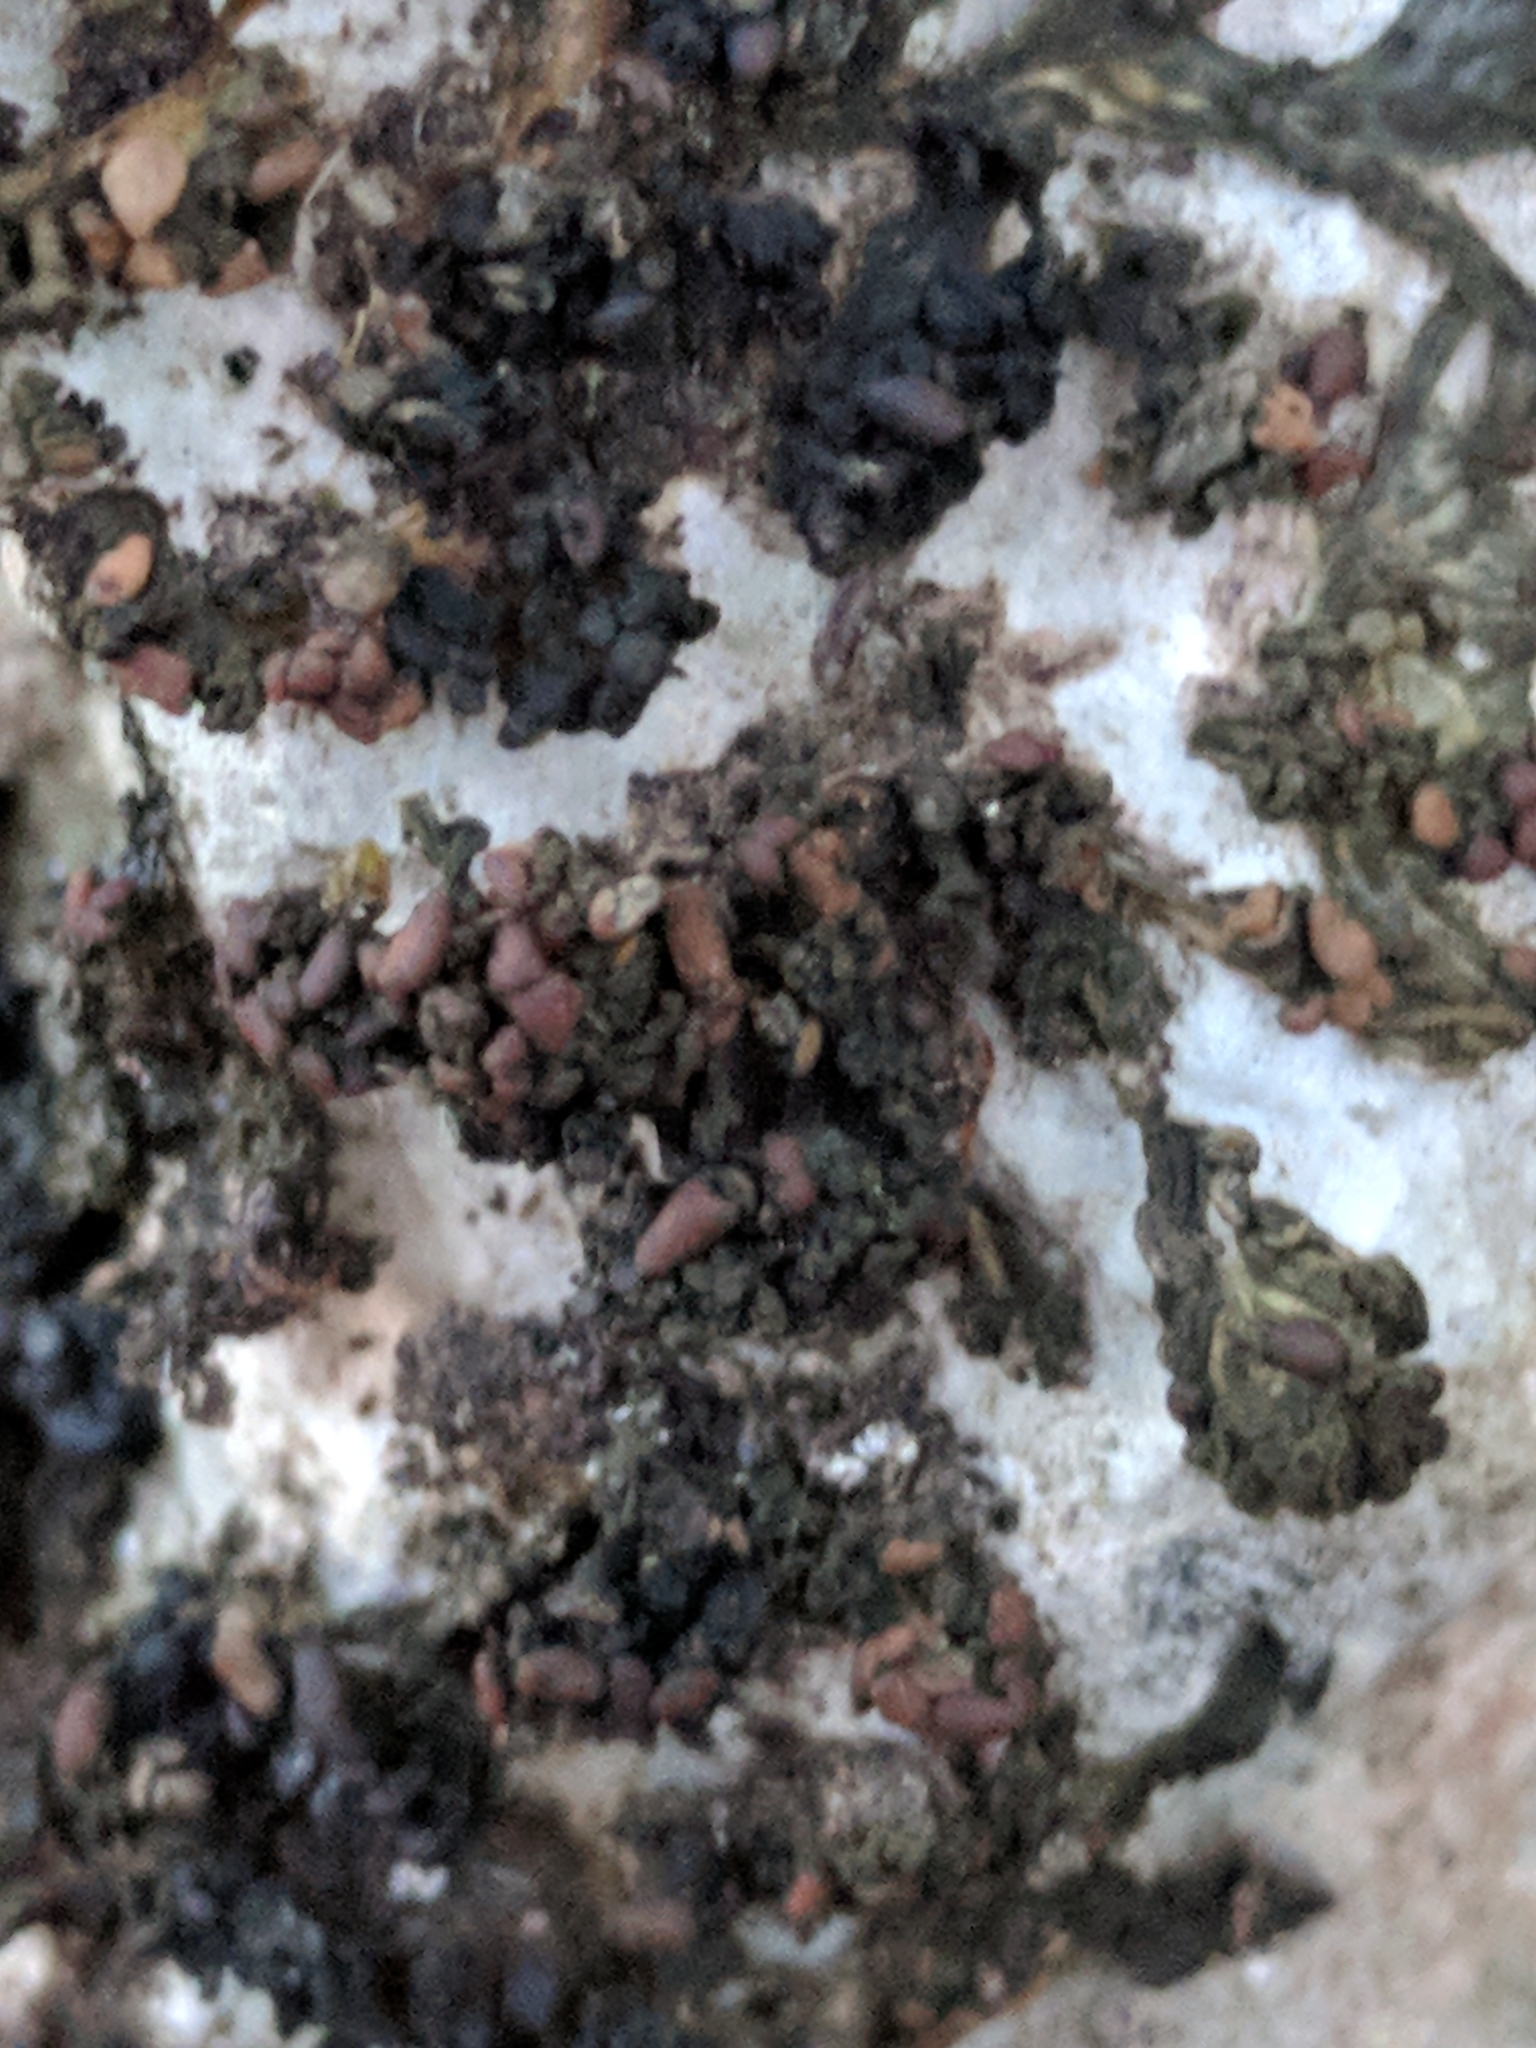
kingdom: Fungi
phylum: Ascomycota
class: Lecanoromycetes
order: Peltigerales
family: Collemataceae
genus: Enchylium
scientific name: Enchylium polycarpon
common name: Shaly jelly lichen
